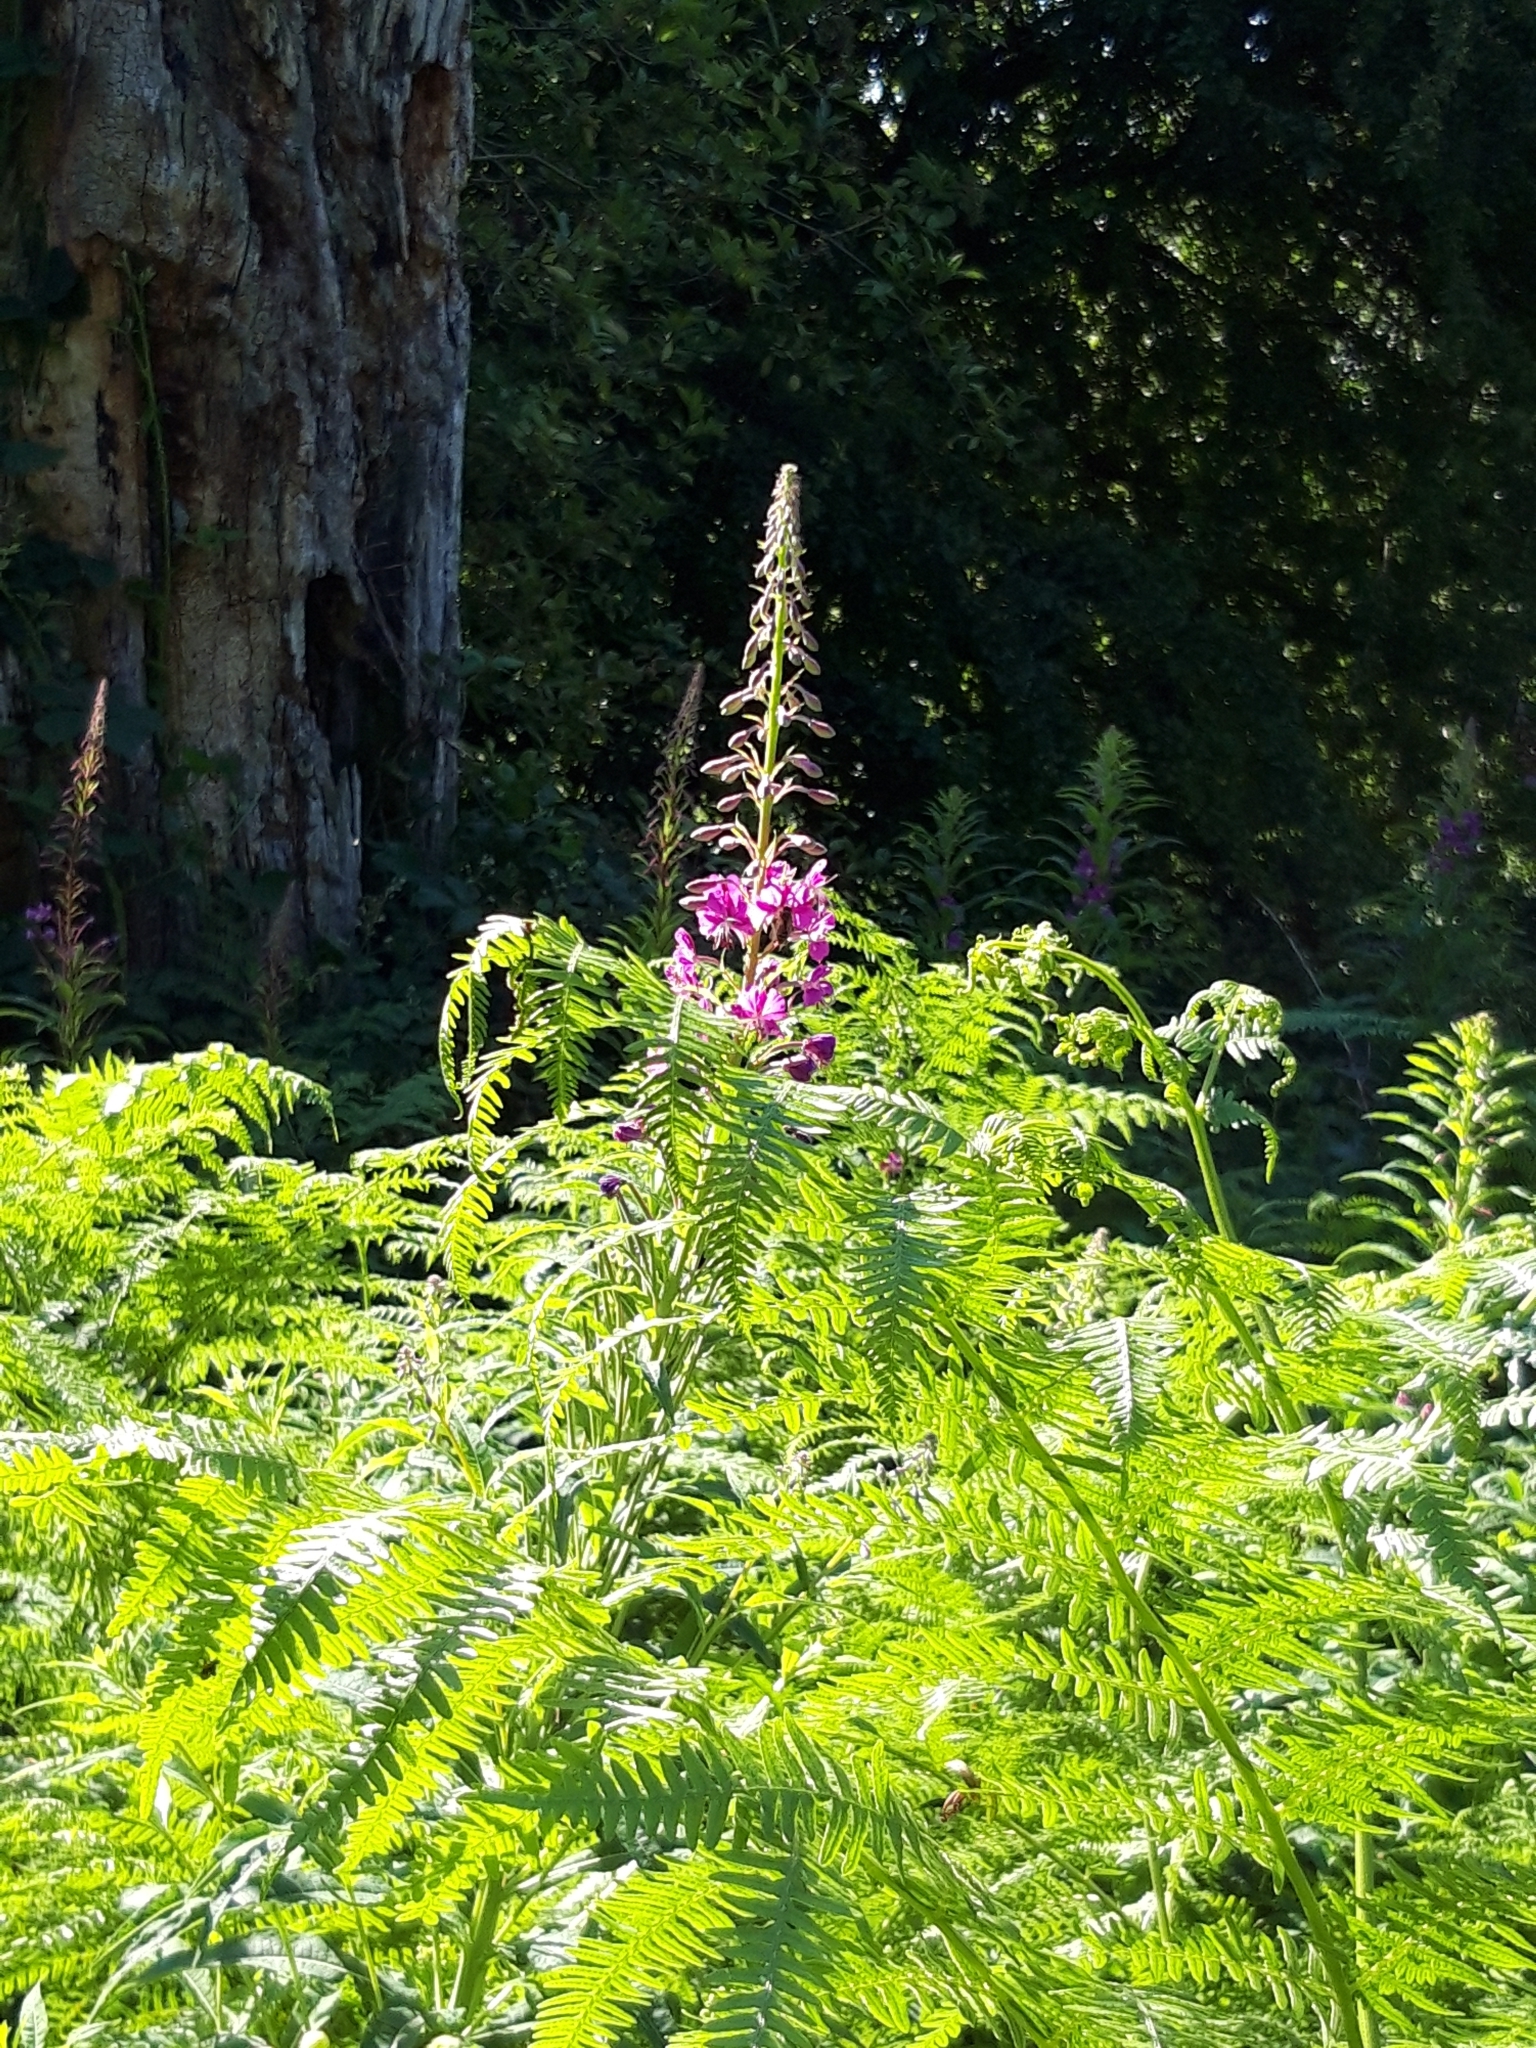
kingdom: Plantae
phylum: Tracheophyta
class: Magnoliopsida
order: Myrtales
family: Onagraceae
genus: Chamaenerion
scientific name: Chamaenerion angustifolium
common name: Fireweed
